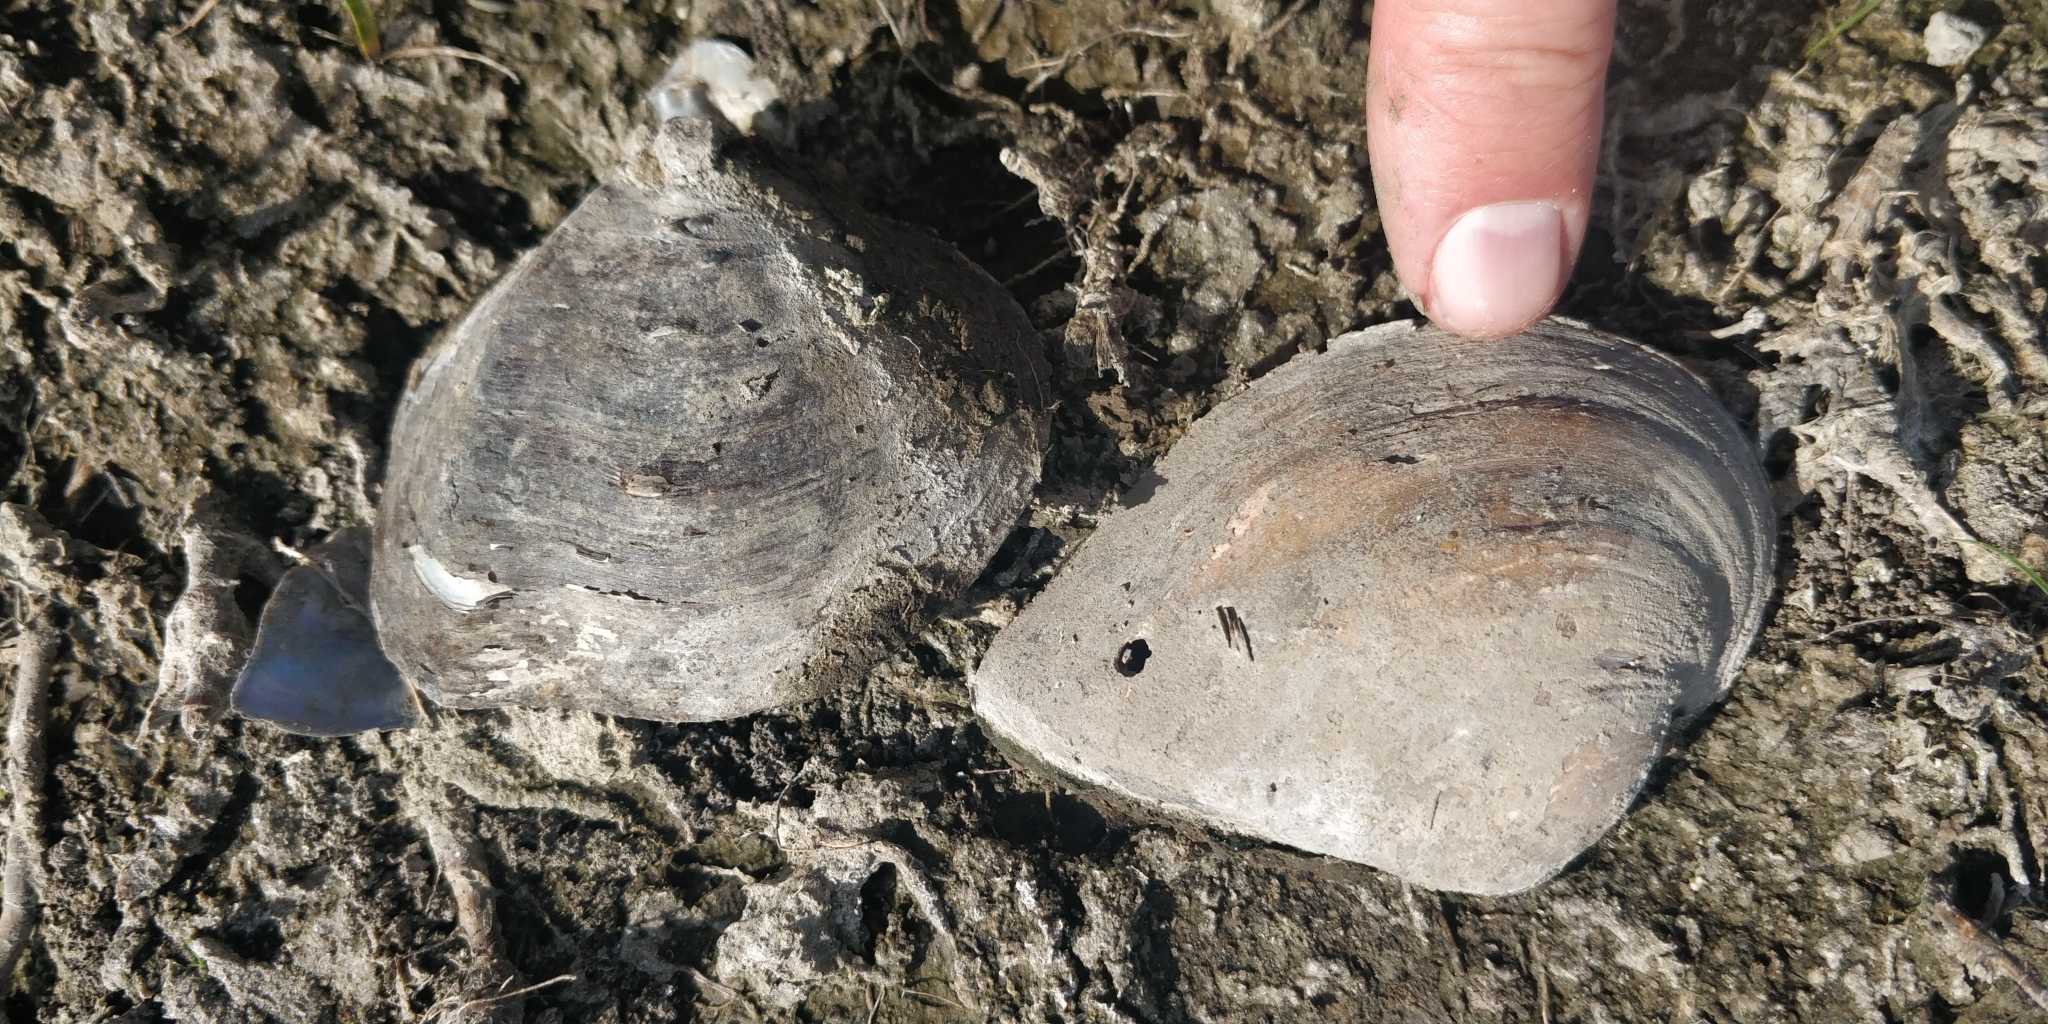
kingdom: Animalia
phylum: Mollusca
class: Bivalvia
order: Unionida
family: Unionidae
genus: Truncilla
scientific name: Truncilla truncata
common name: Deertoe
